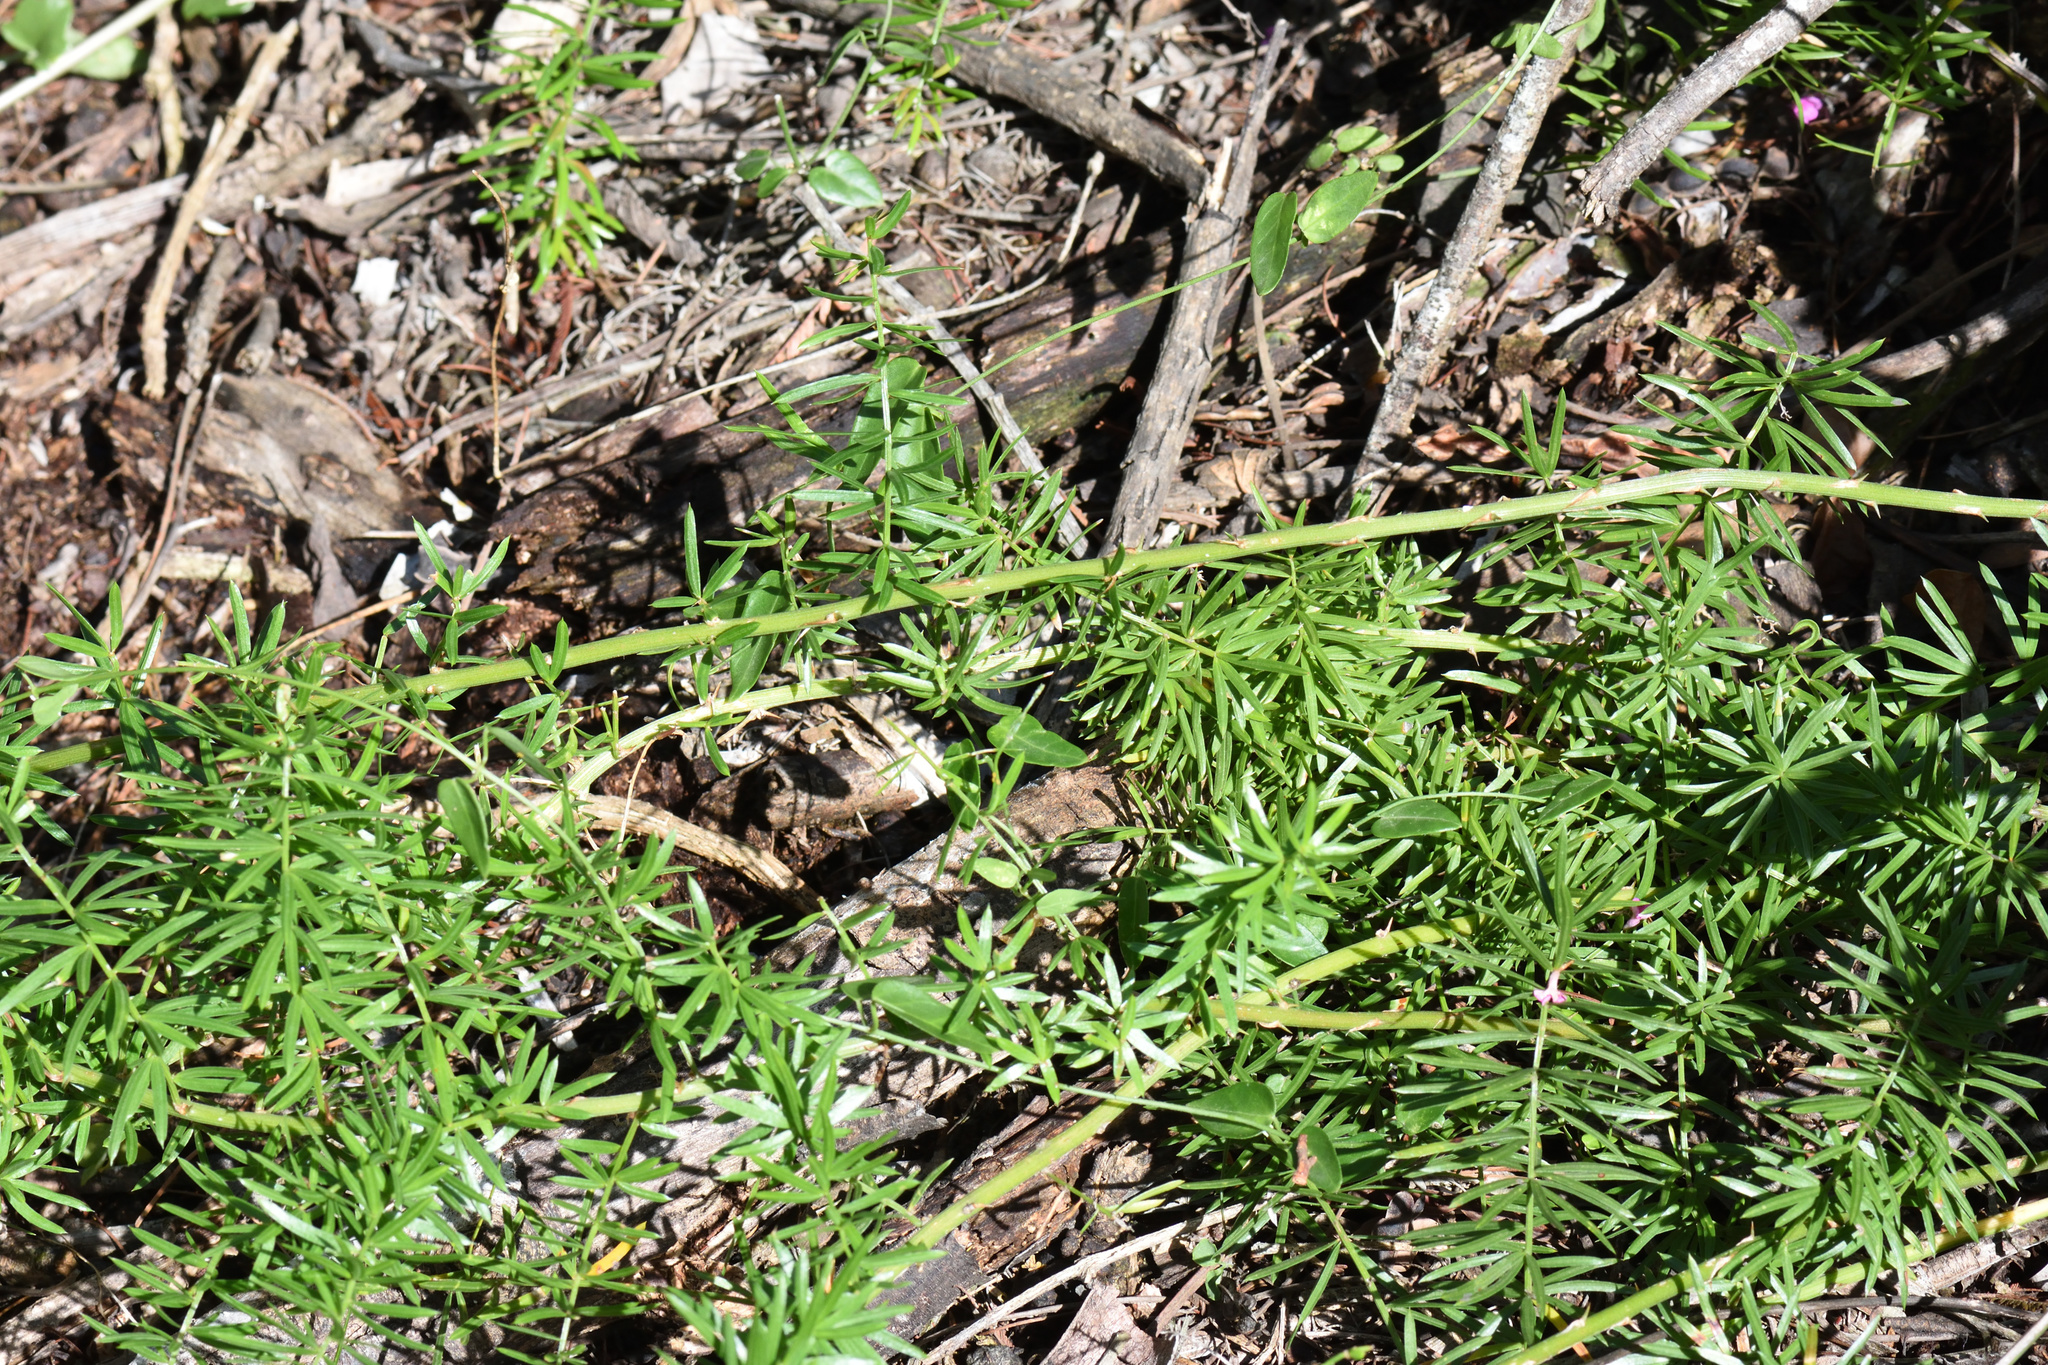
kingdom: Plantae
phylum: Tracheophyta
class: Liliopsida
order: Asparagales
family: Asparagaceae
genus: Asparagus
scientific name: Asparagus densiflorus
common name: Asparagus fern
